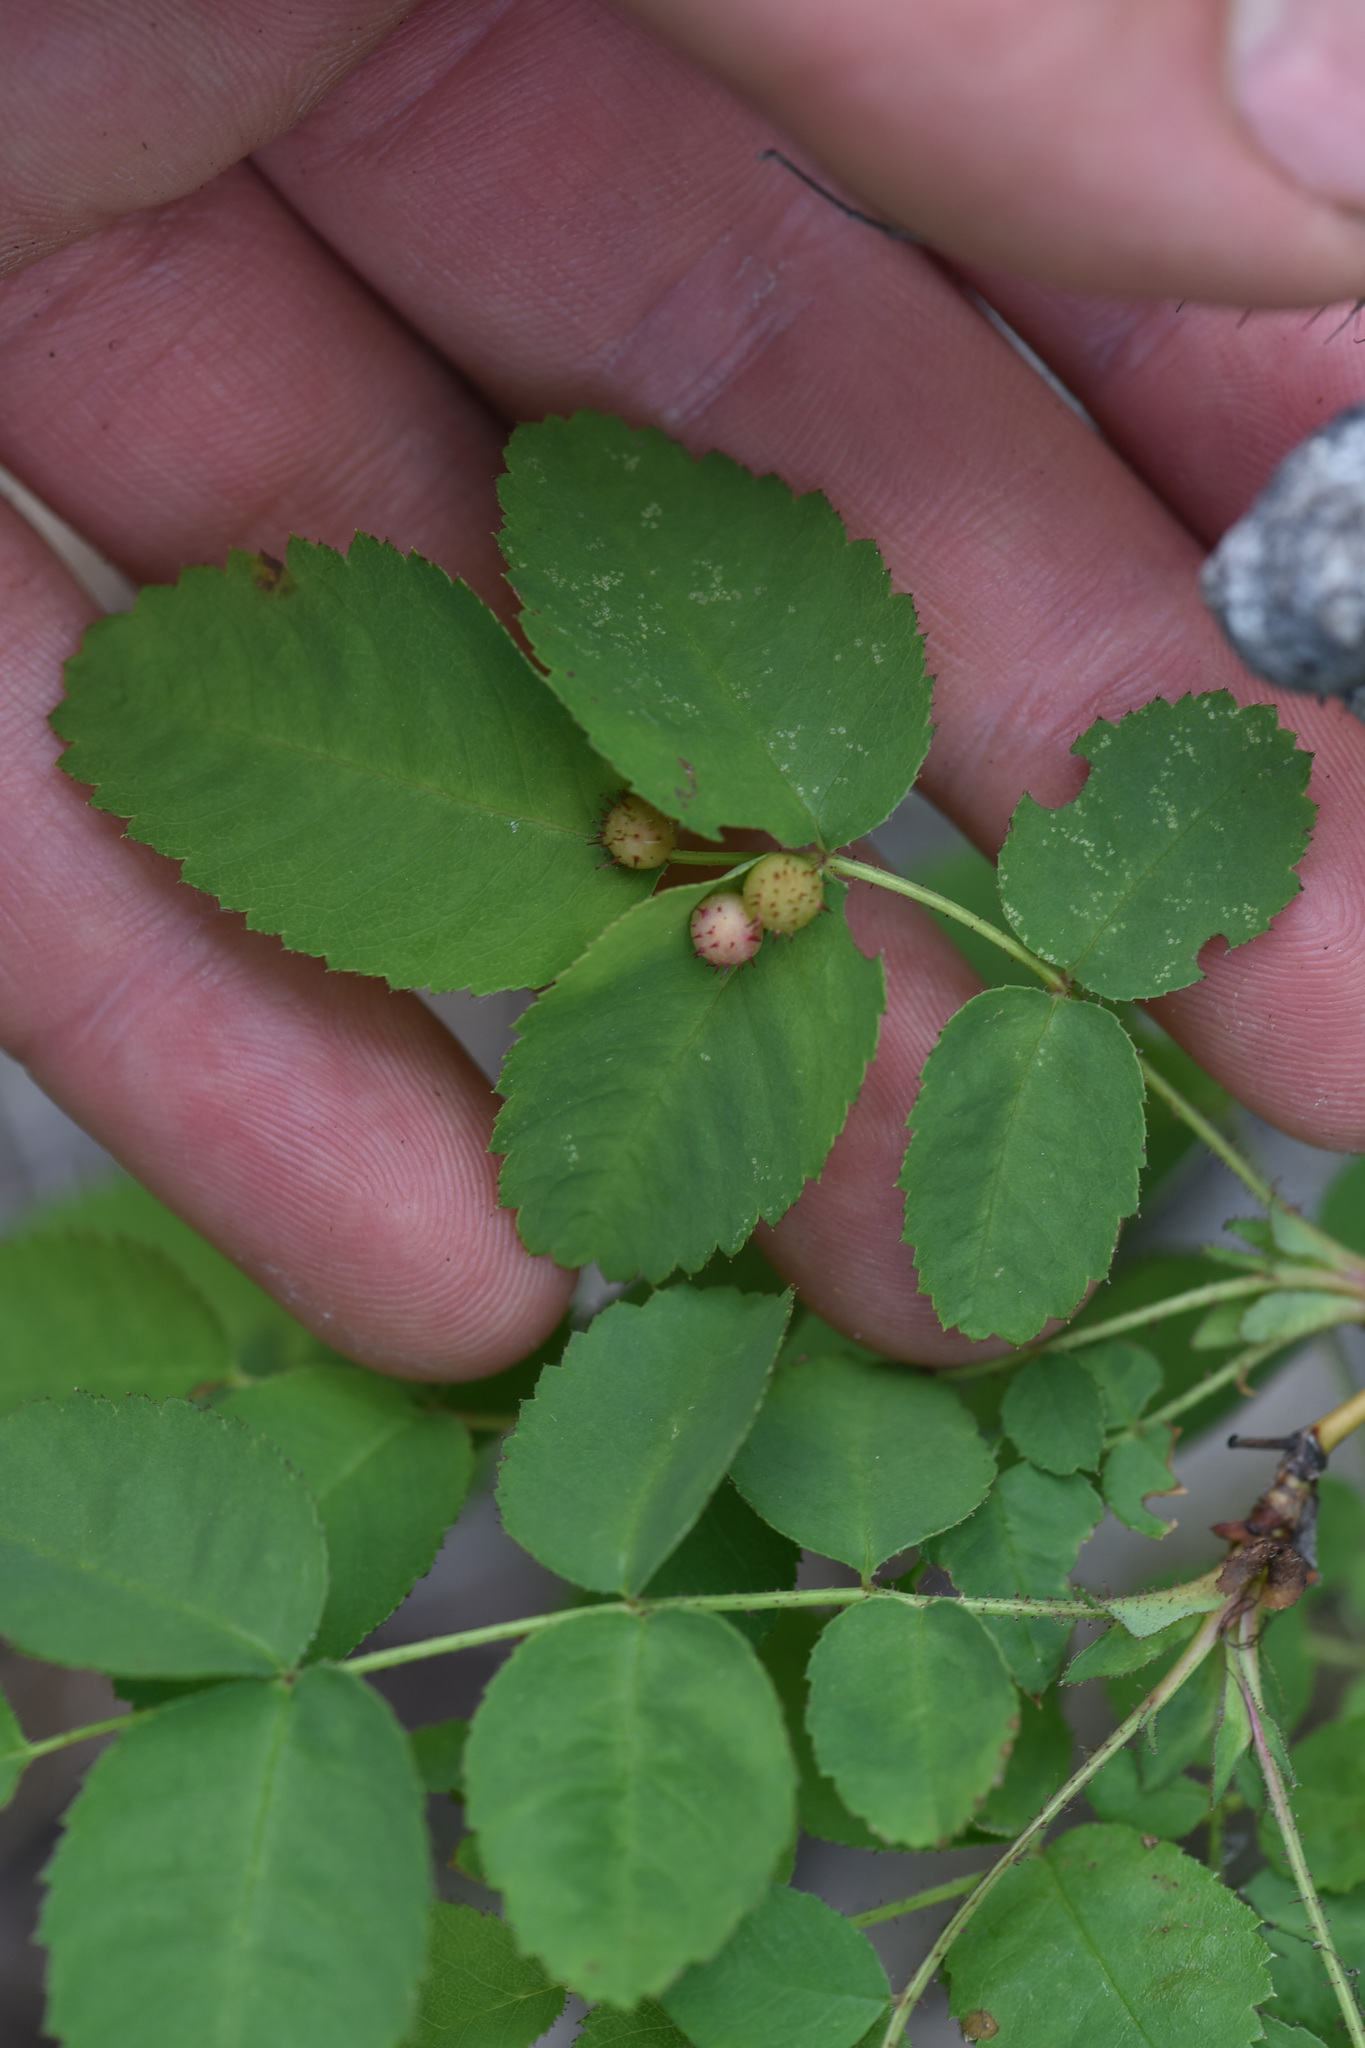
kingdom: Animalia
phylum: Arthropoda
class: Insecta
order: Hymenoptera
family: Cynipidae
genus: Diplolepis
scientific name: Diplolepis polita
